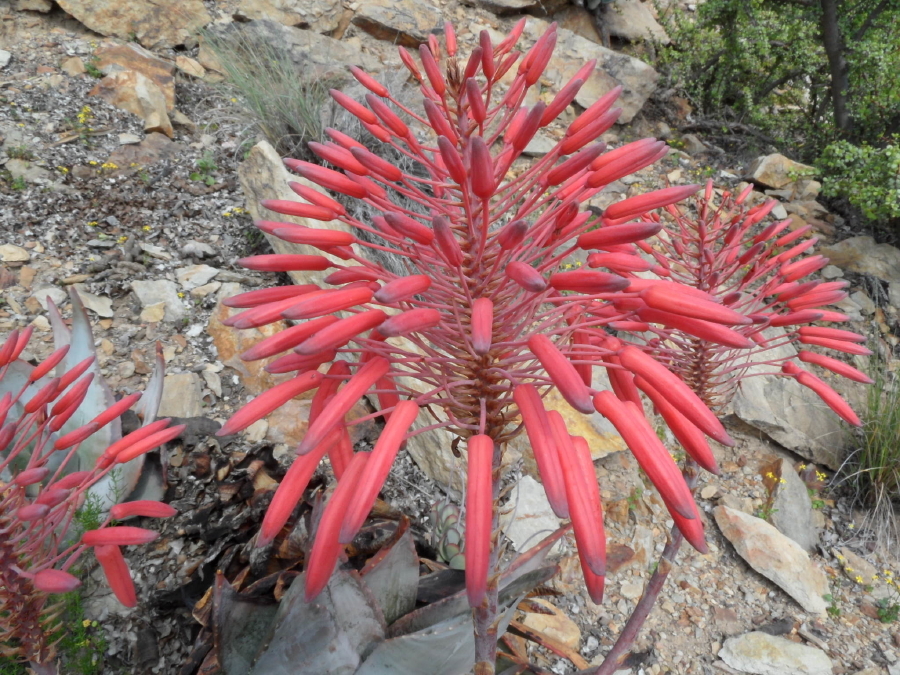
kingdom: Plantae
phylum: Tracheophyta
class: Liliopsida
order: Asparagales
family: Asphodelaceae
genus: Aloe
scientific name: Aloe comptonii
